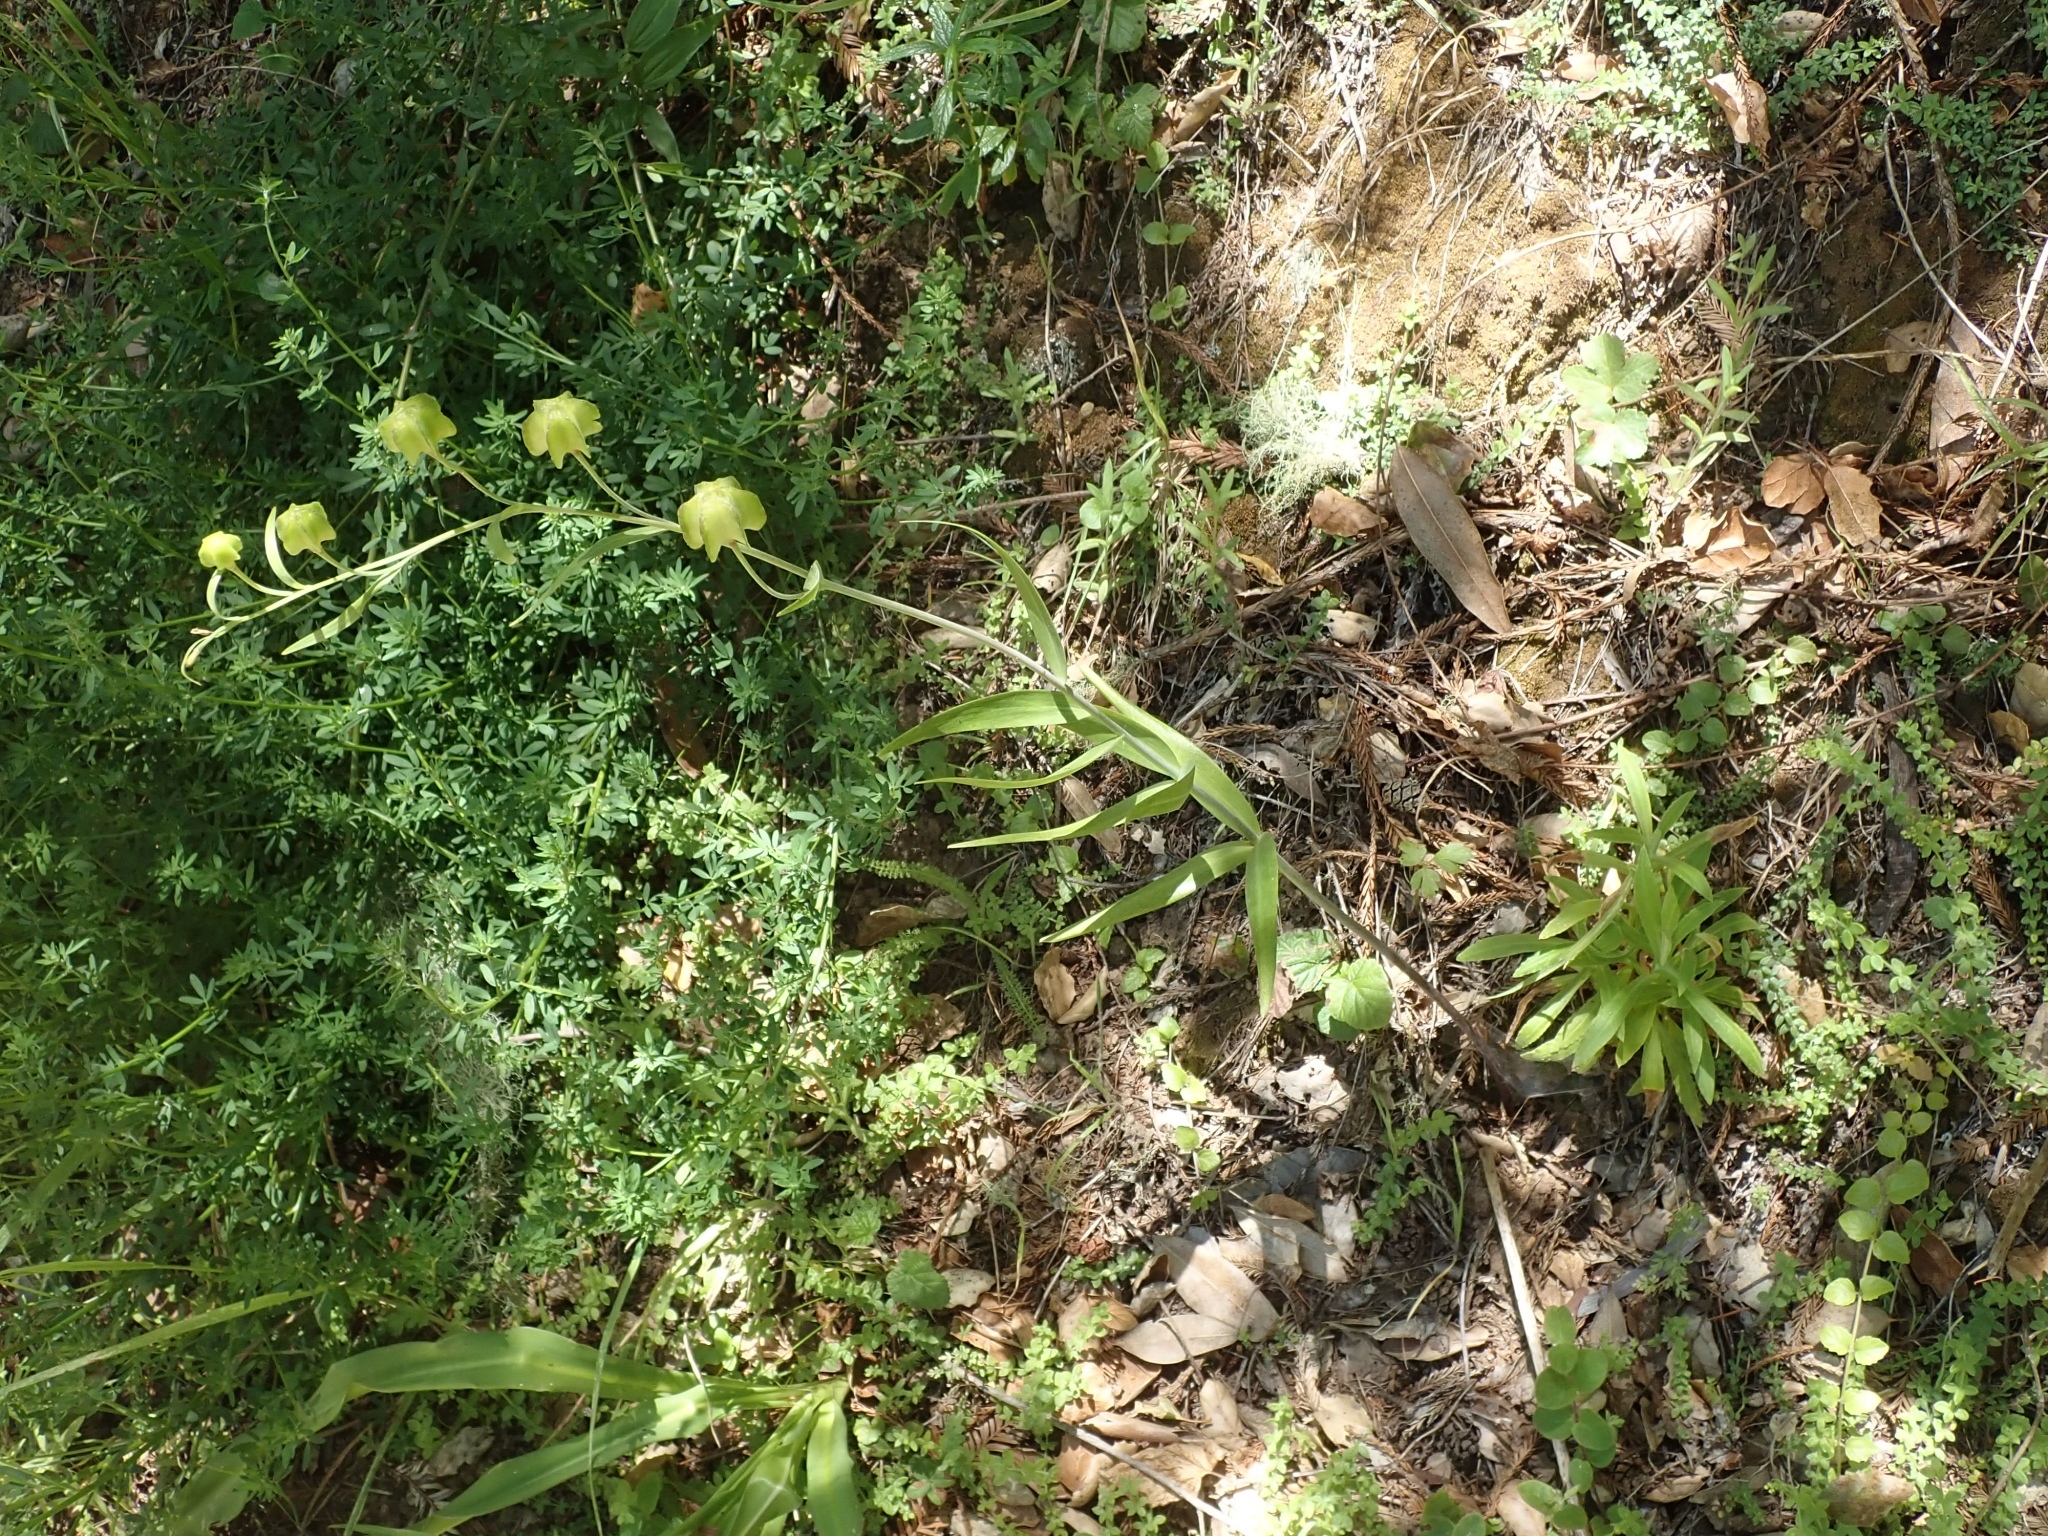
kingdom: Plantae
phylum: Tracheophyta
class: Liliopsida
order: Liliales
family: Liliaceae
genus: Fritillaria
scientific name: Fritillaria affinis
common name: Ojai fritillary
